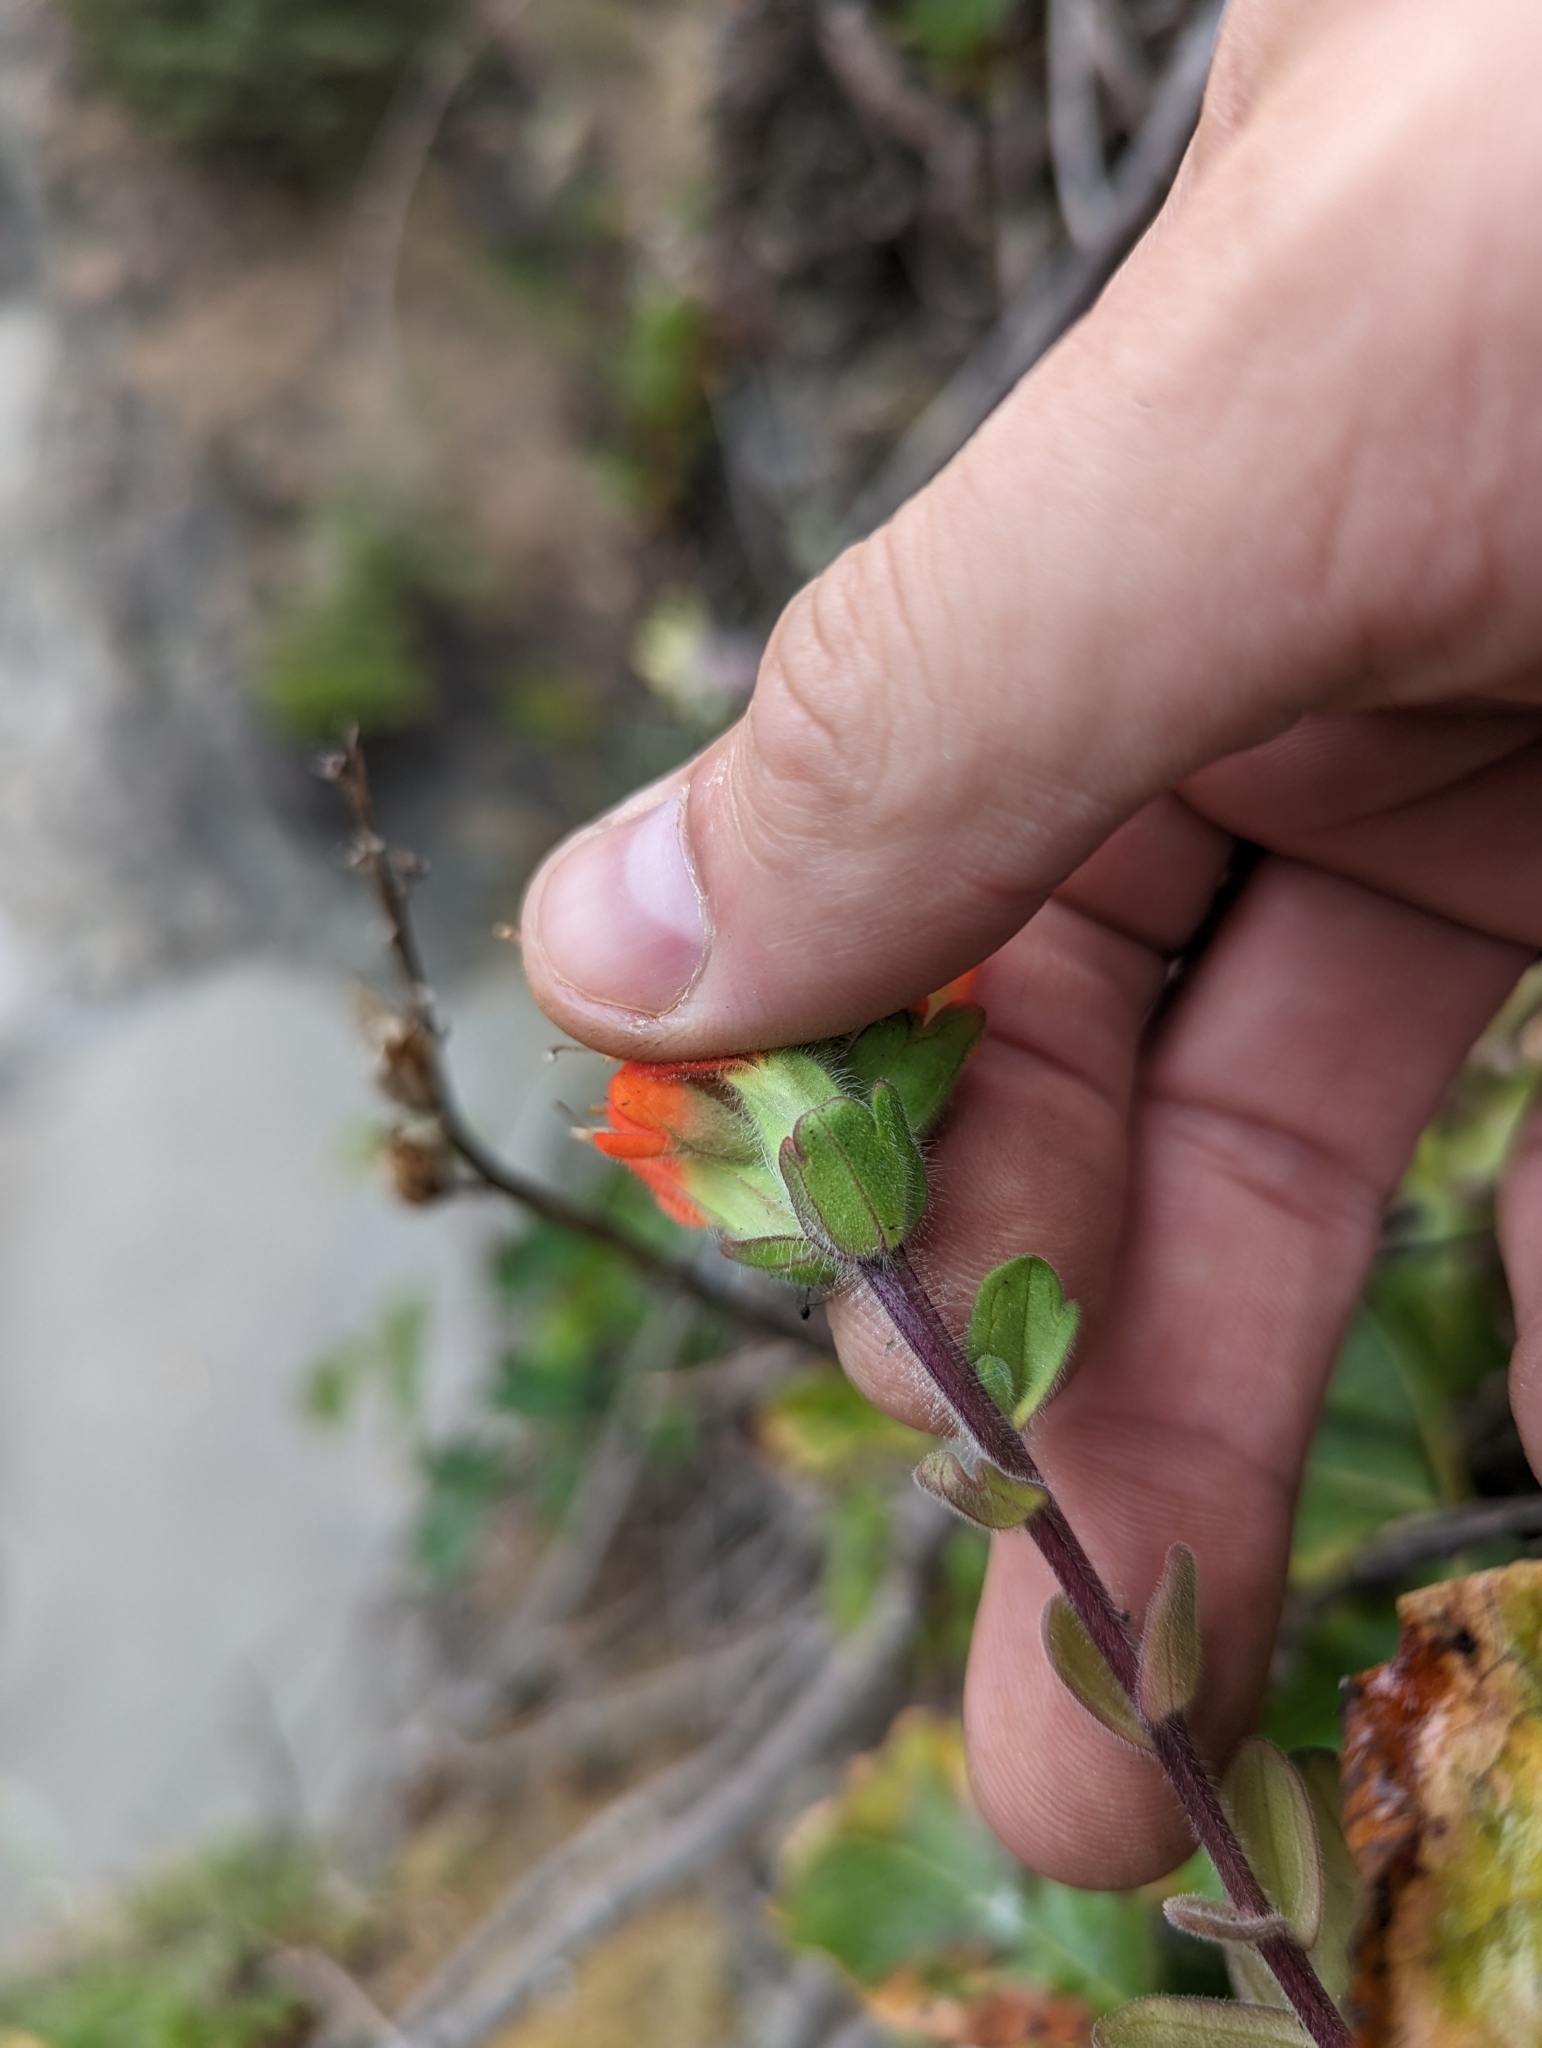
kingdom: Plantae
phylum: Tracheophyta
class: Magnoliopsida
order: Lamiales
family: Orobanchaceae
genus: Castilleja
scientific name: Castilleja mendocinensis
